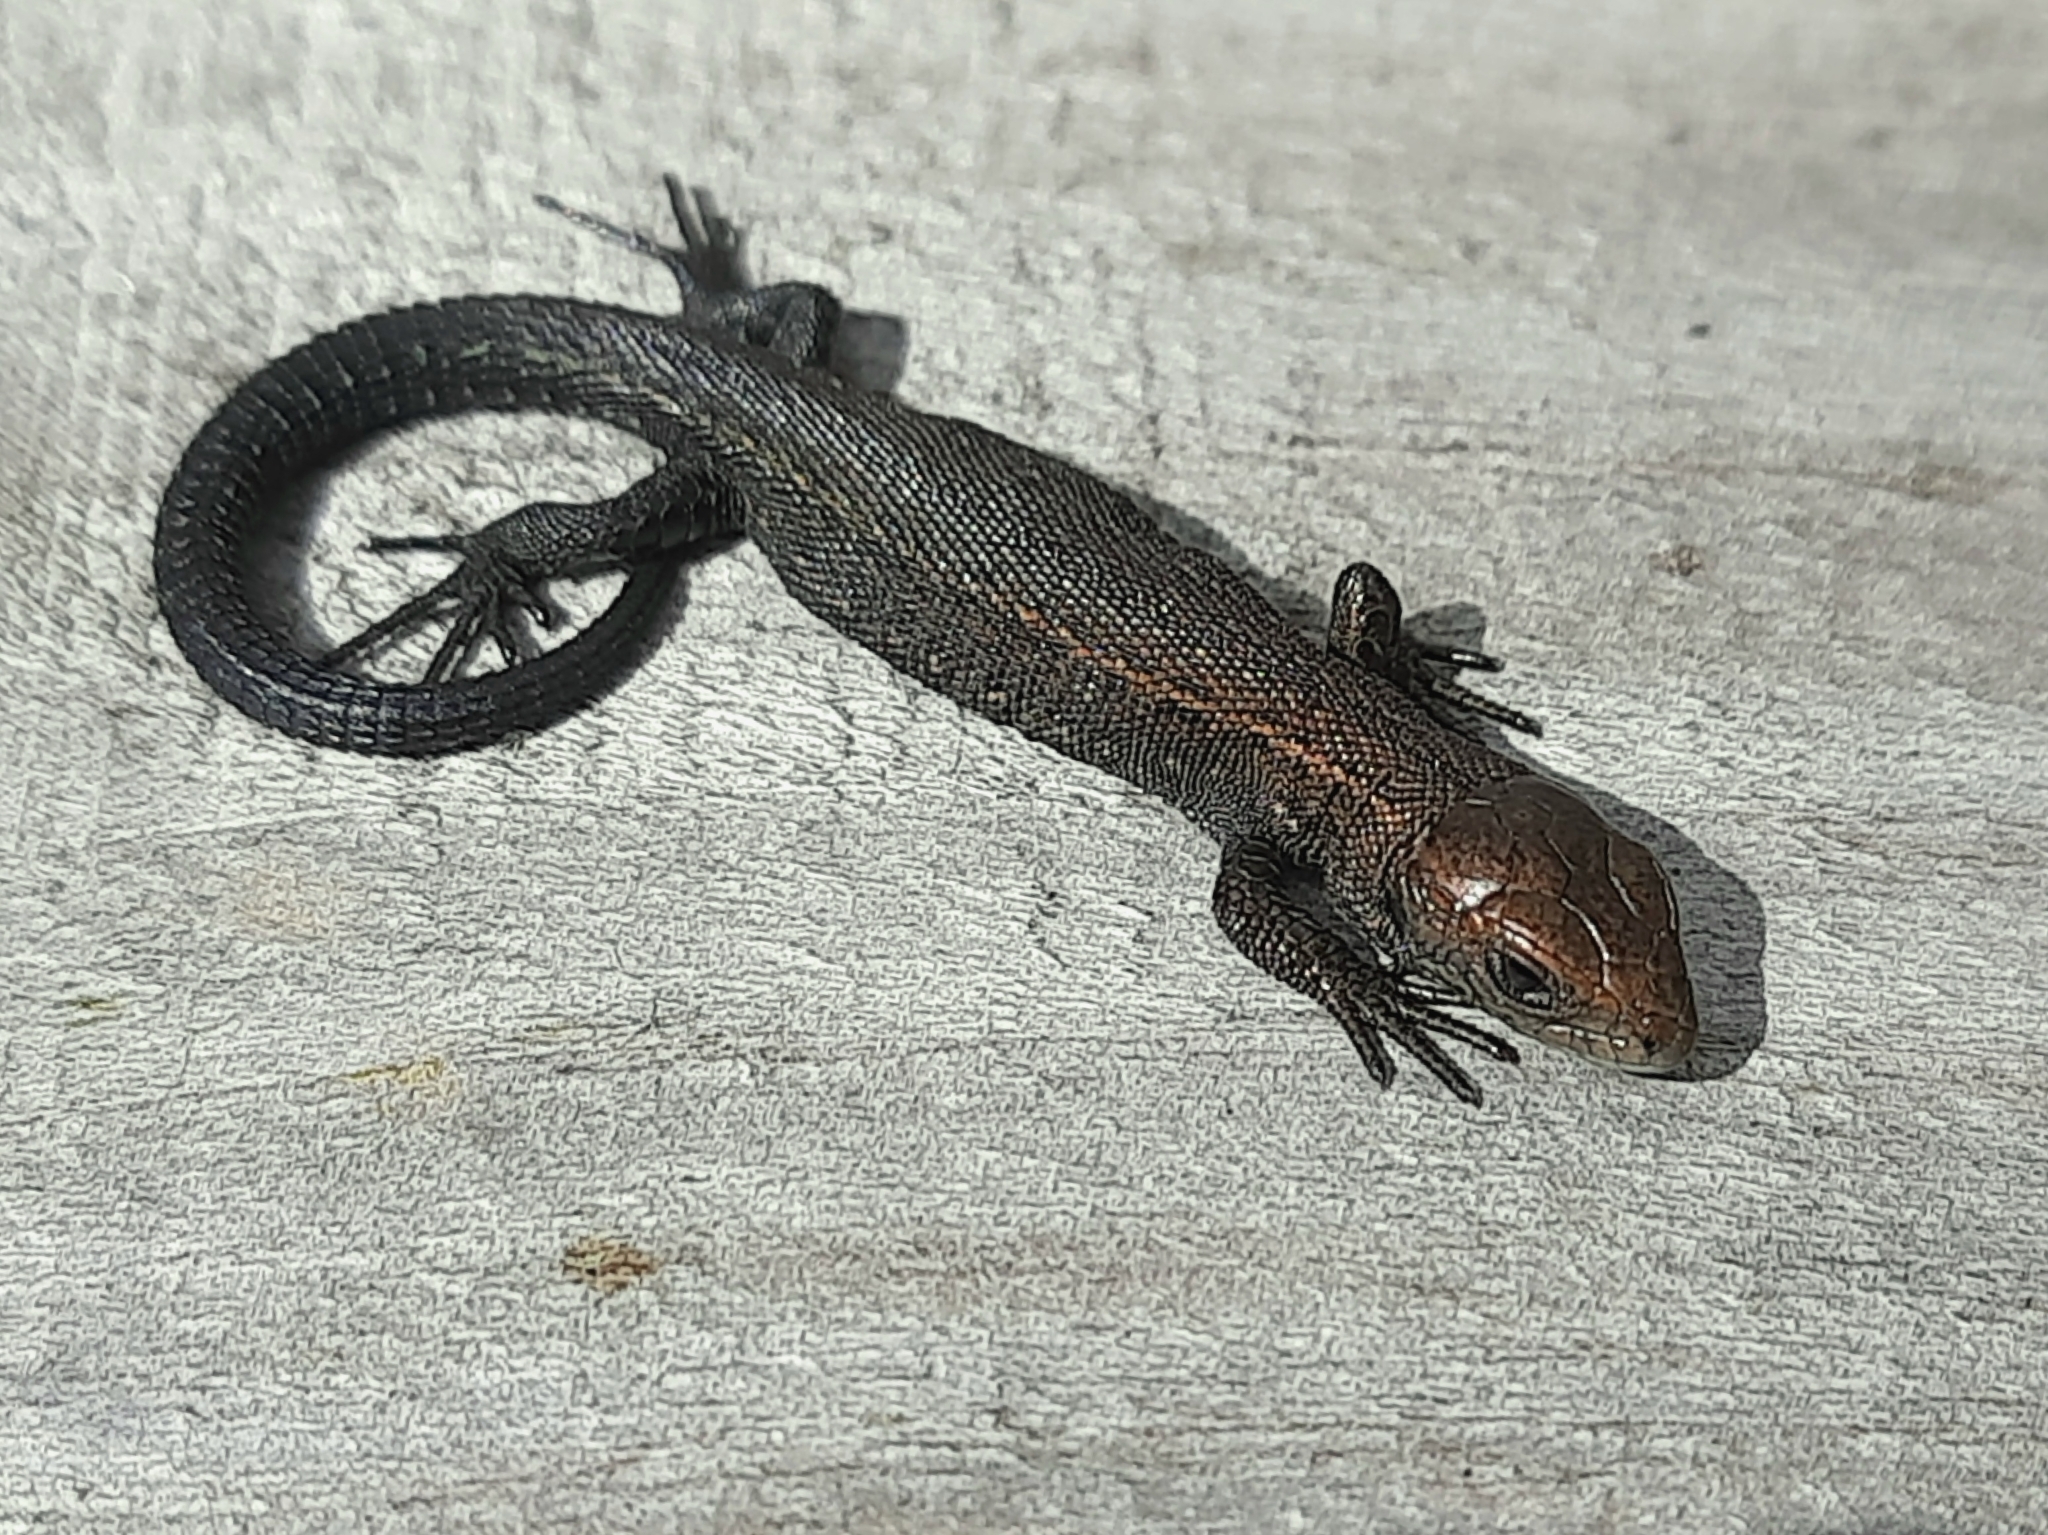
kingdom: Animalia
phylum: Chordata
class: Squamata
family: Lacertidae
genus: Zootoca
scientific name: Zootoca vivipara
